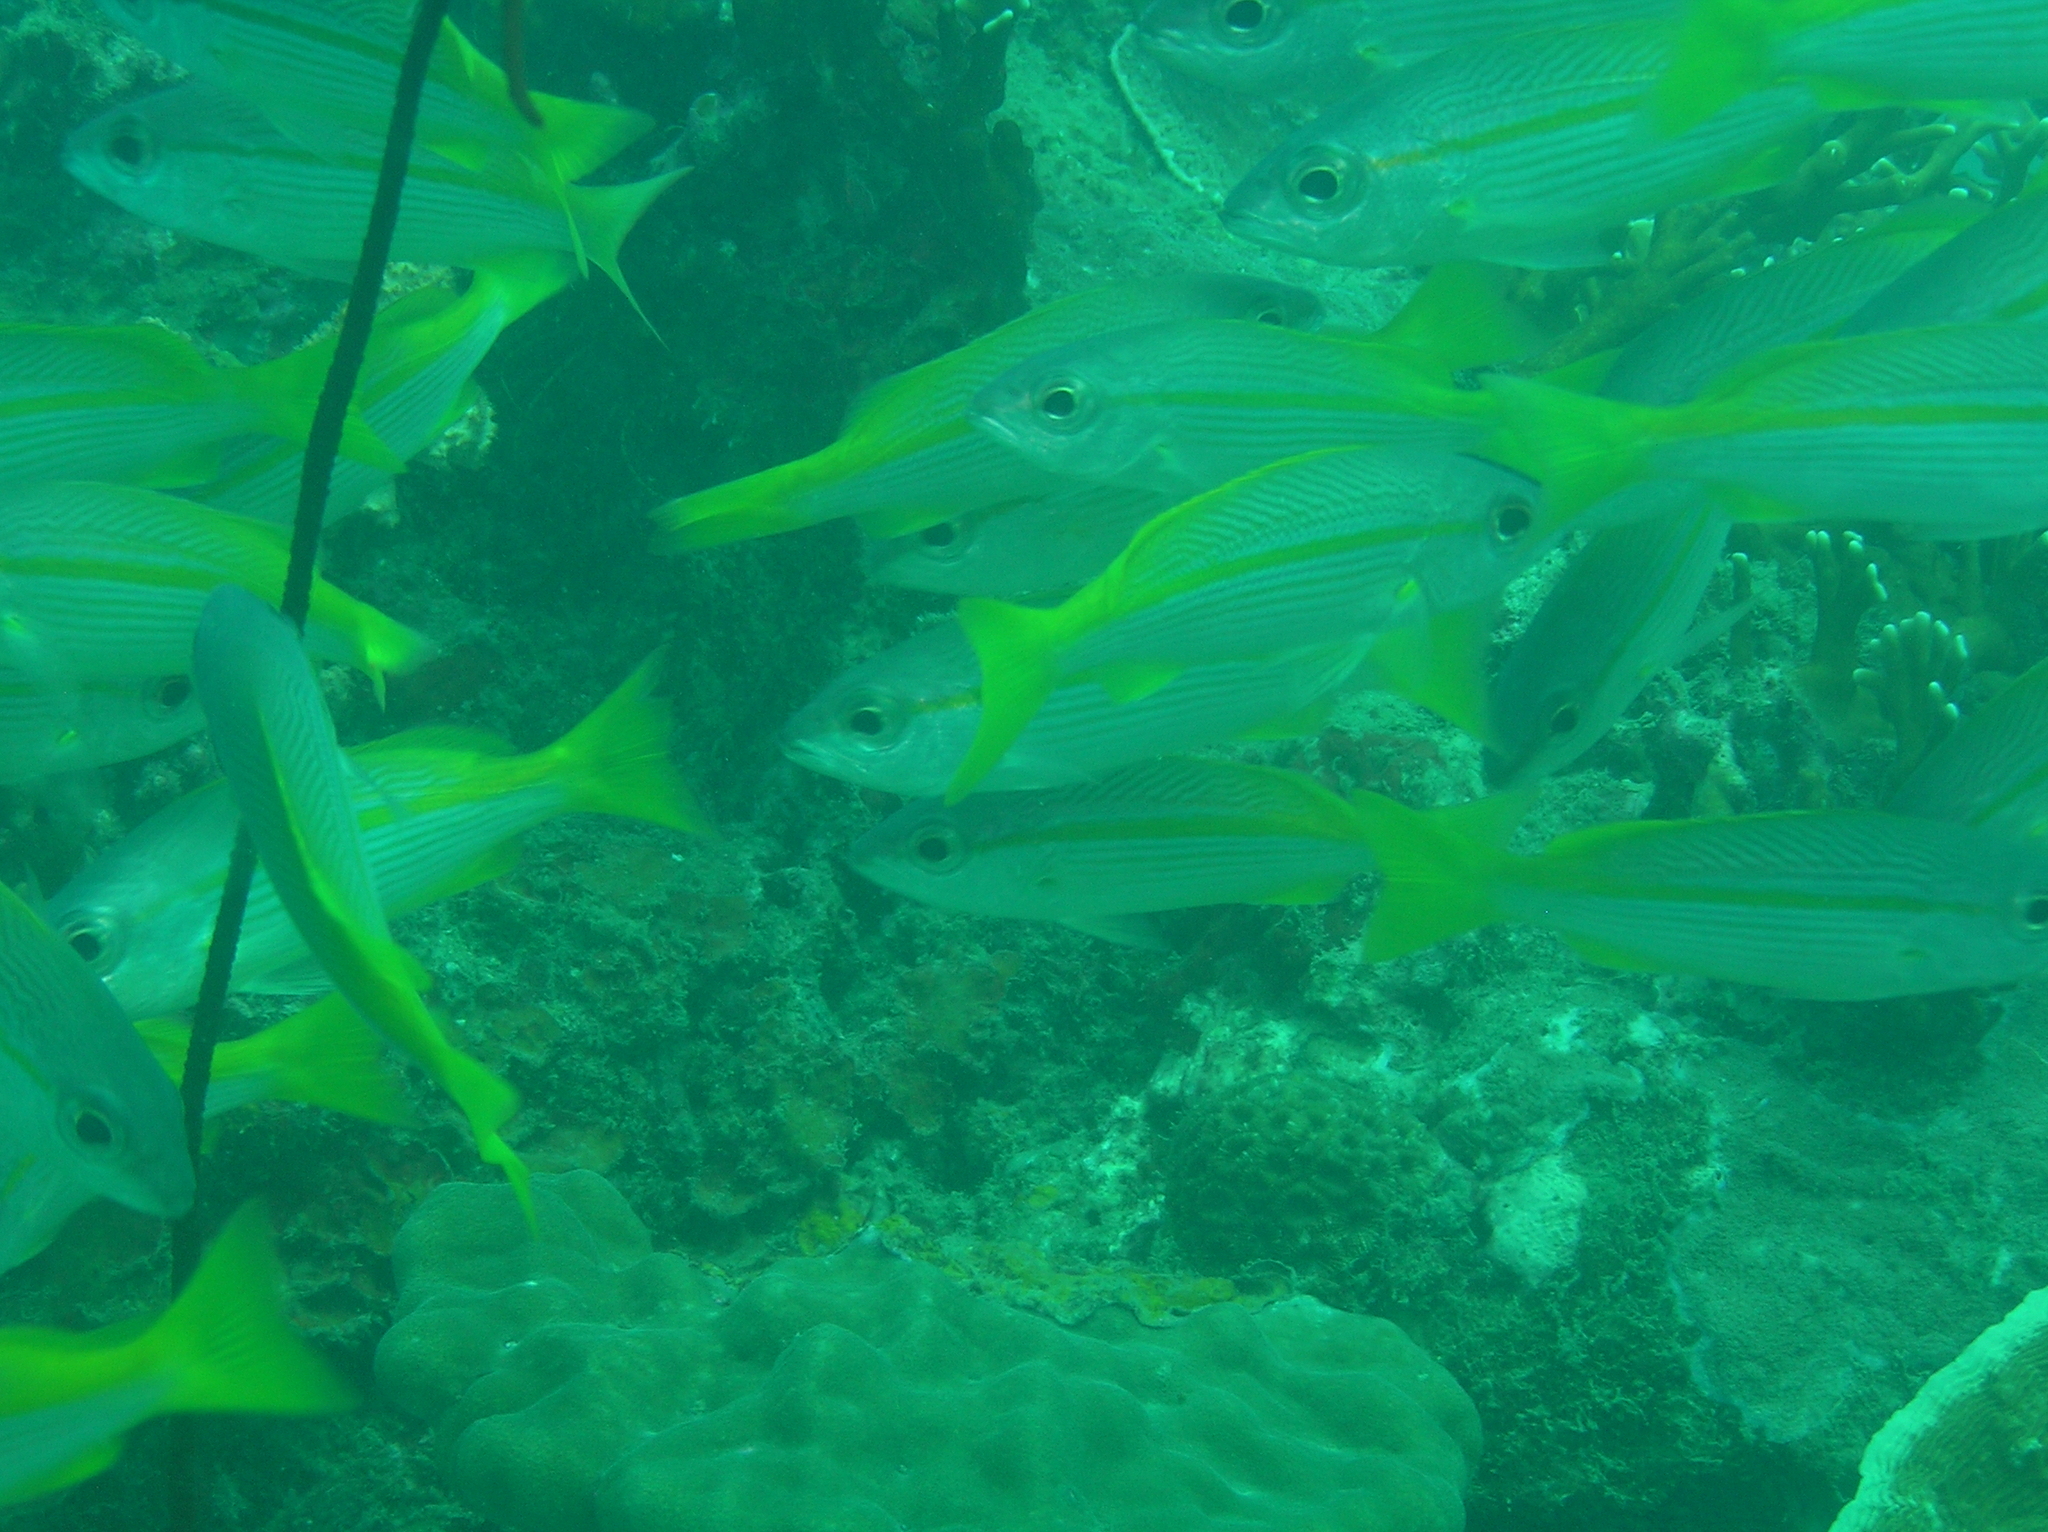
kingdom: Animalia
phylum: Chordata
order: Perciformes
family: Lutjanidae
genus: Lutjanus
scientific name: Lutjanus lutjanus
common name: Bigeye snapper
